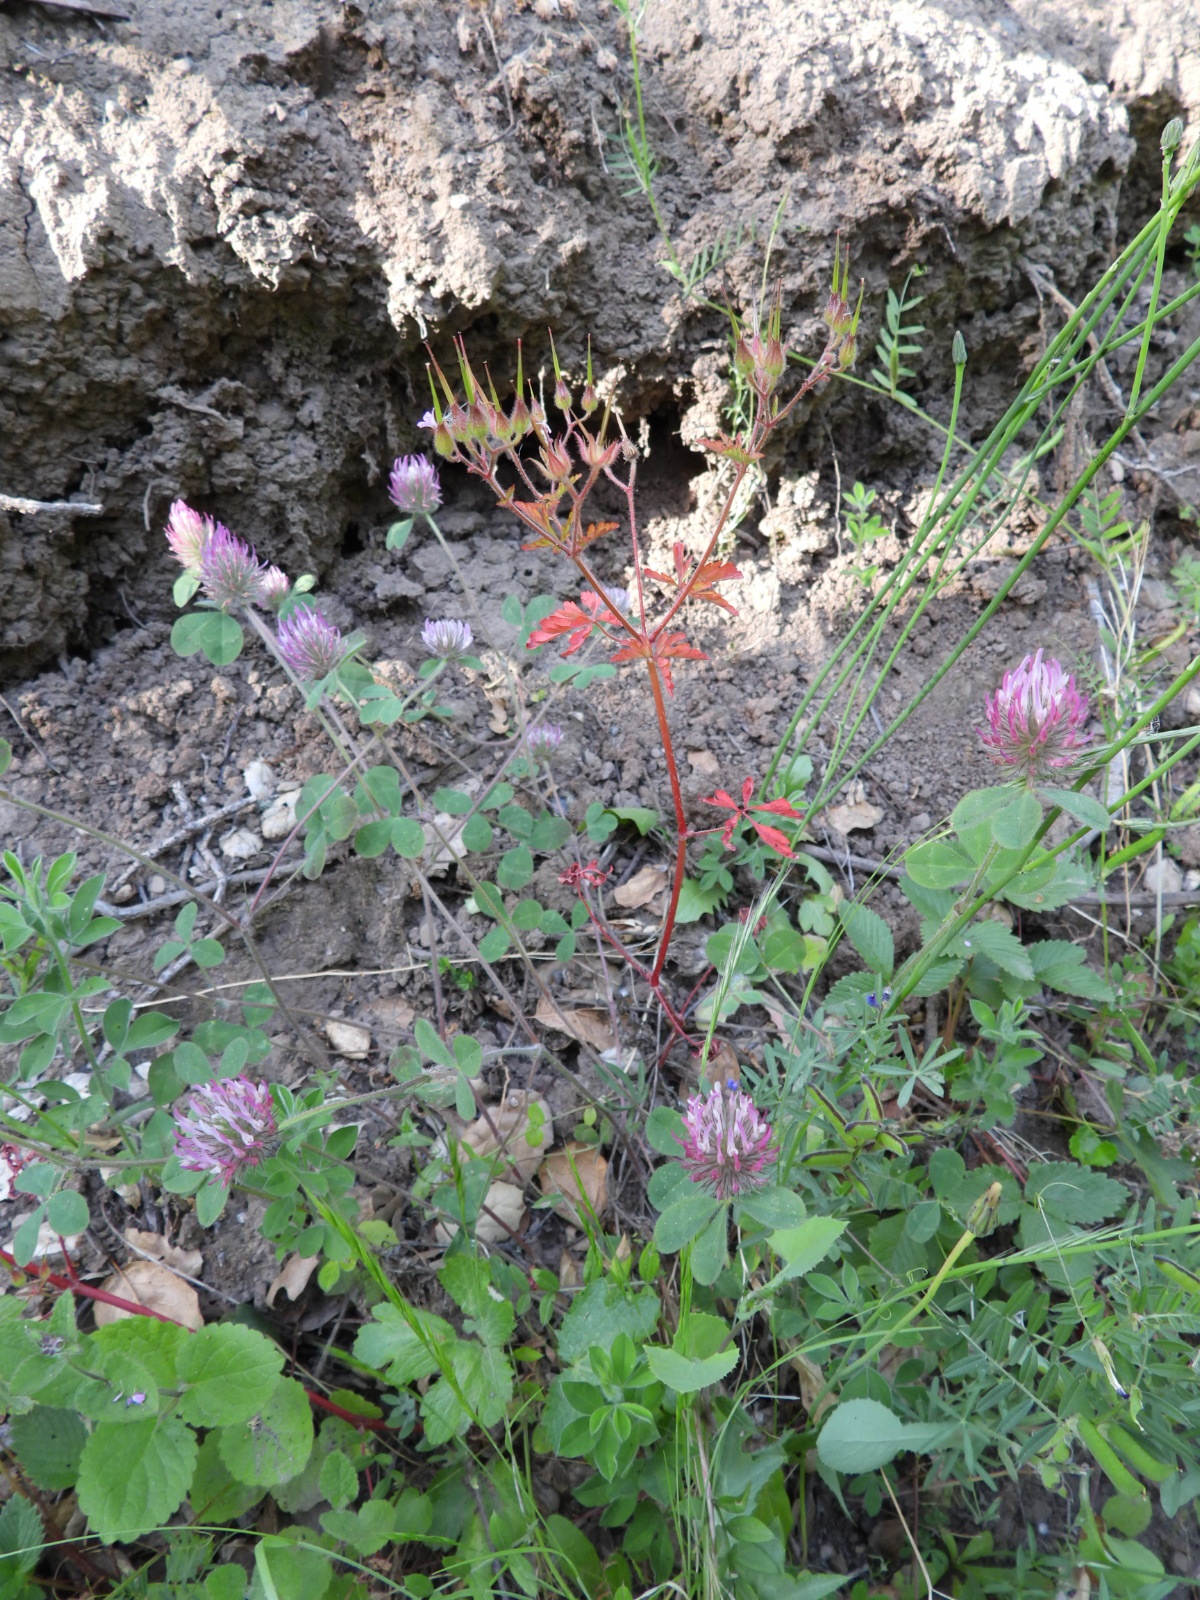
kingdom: Plantae
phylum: Tracheophyta
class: Magnoliopsida
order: Fabales
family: Fabaceae
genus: Trifolium
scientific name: Trifolium hirtum
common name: Rose clover
